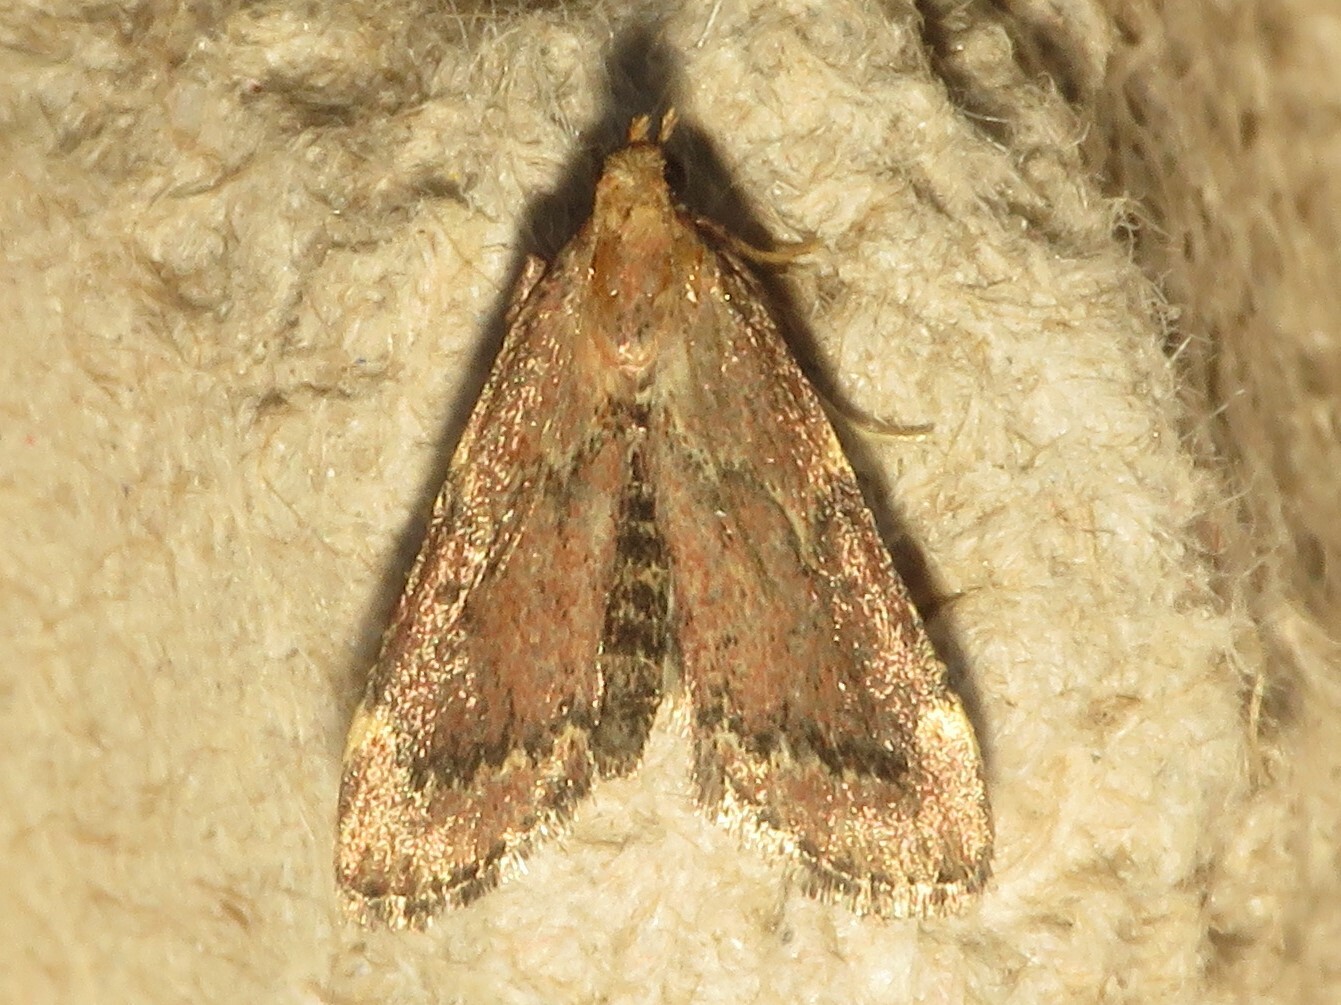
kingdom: Animalia
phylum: Arthropoda
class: Insecta
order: Lepidoptera
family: Pyralidae
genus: Hypsopygia
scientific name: Hypsopygia intermedialis
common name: Red-shawled moth
